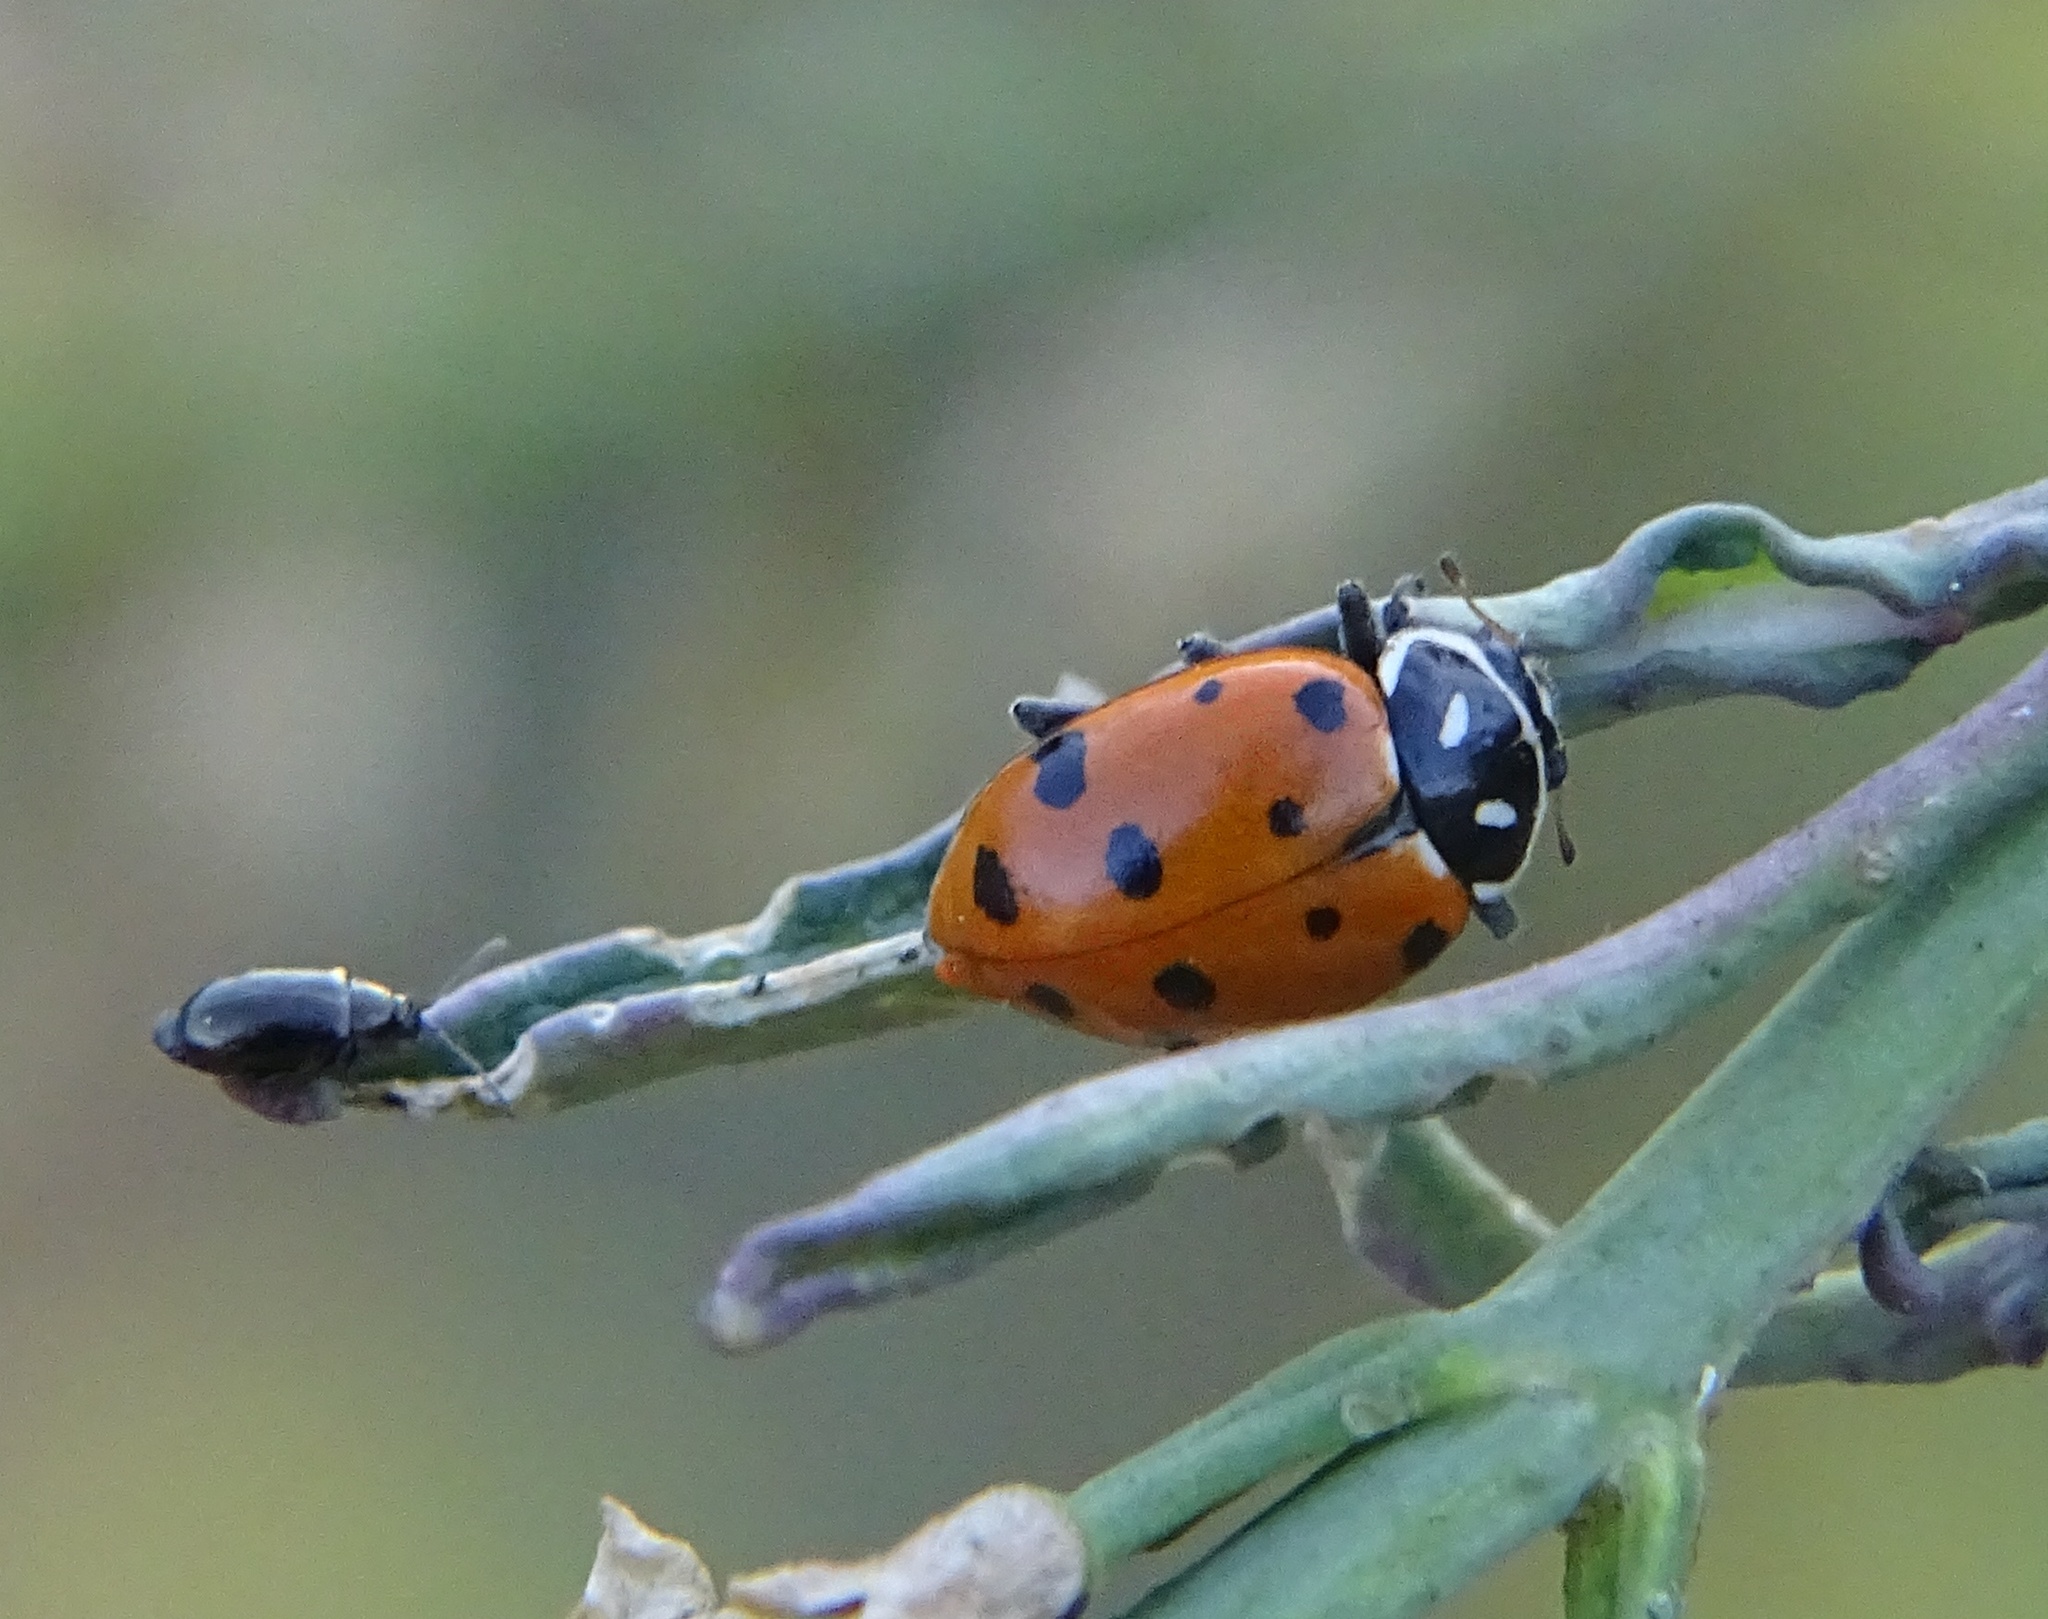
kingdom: Animalia
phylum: Arthropoda
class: Insecta
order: Coleoptera
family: Coccinellidae
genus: Hippodamia
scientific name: Hippodamia convergens
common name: Convergent lady beetle
